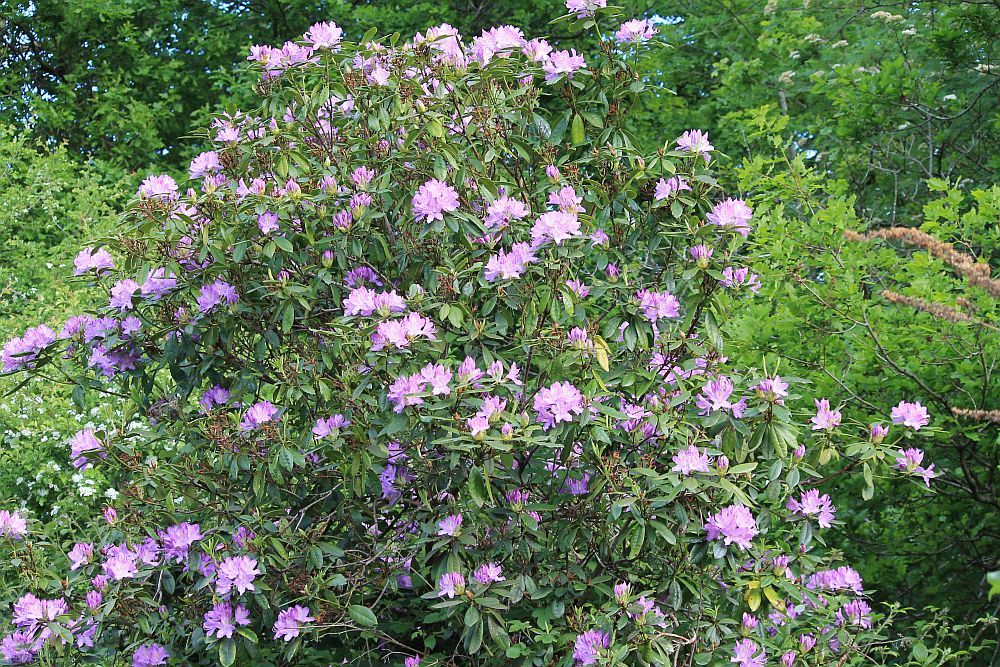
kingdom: Plantae
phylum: Tracheophyta
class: Magnoliopsida
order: Ericales
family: Ericaceae
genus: Rhododendron
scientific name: Rhododendron ponticum
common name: Rhododendron
